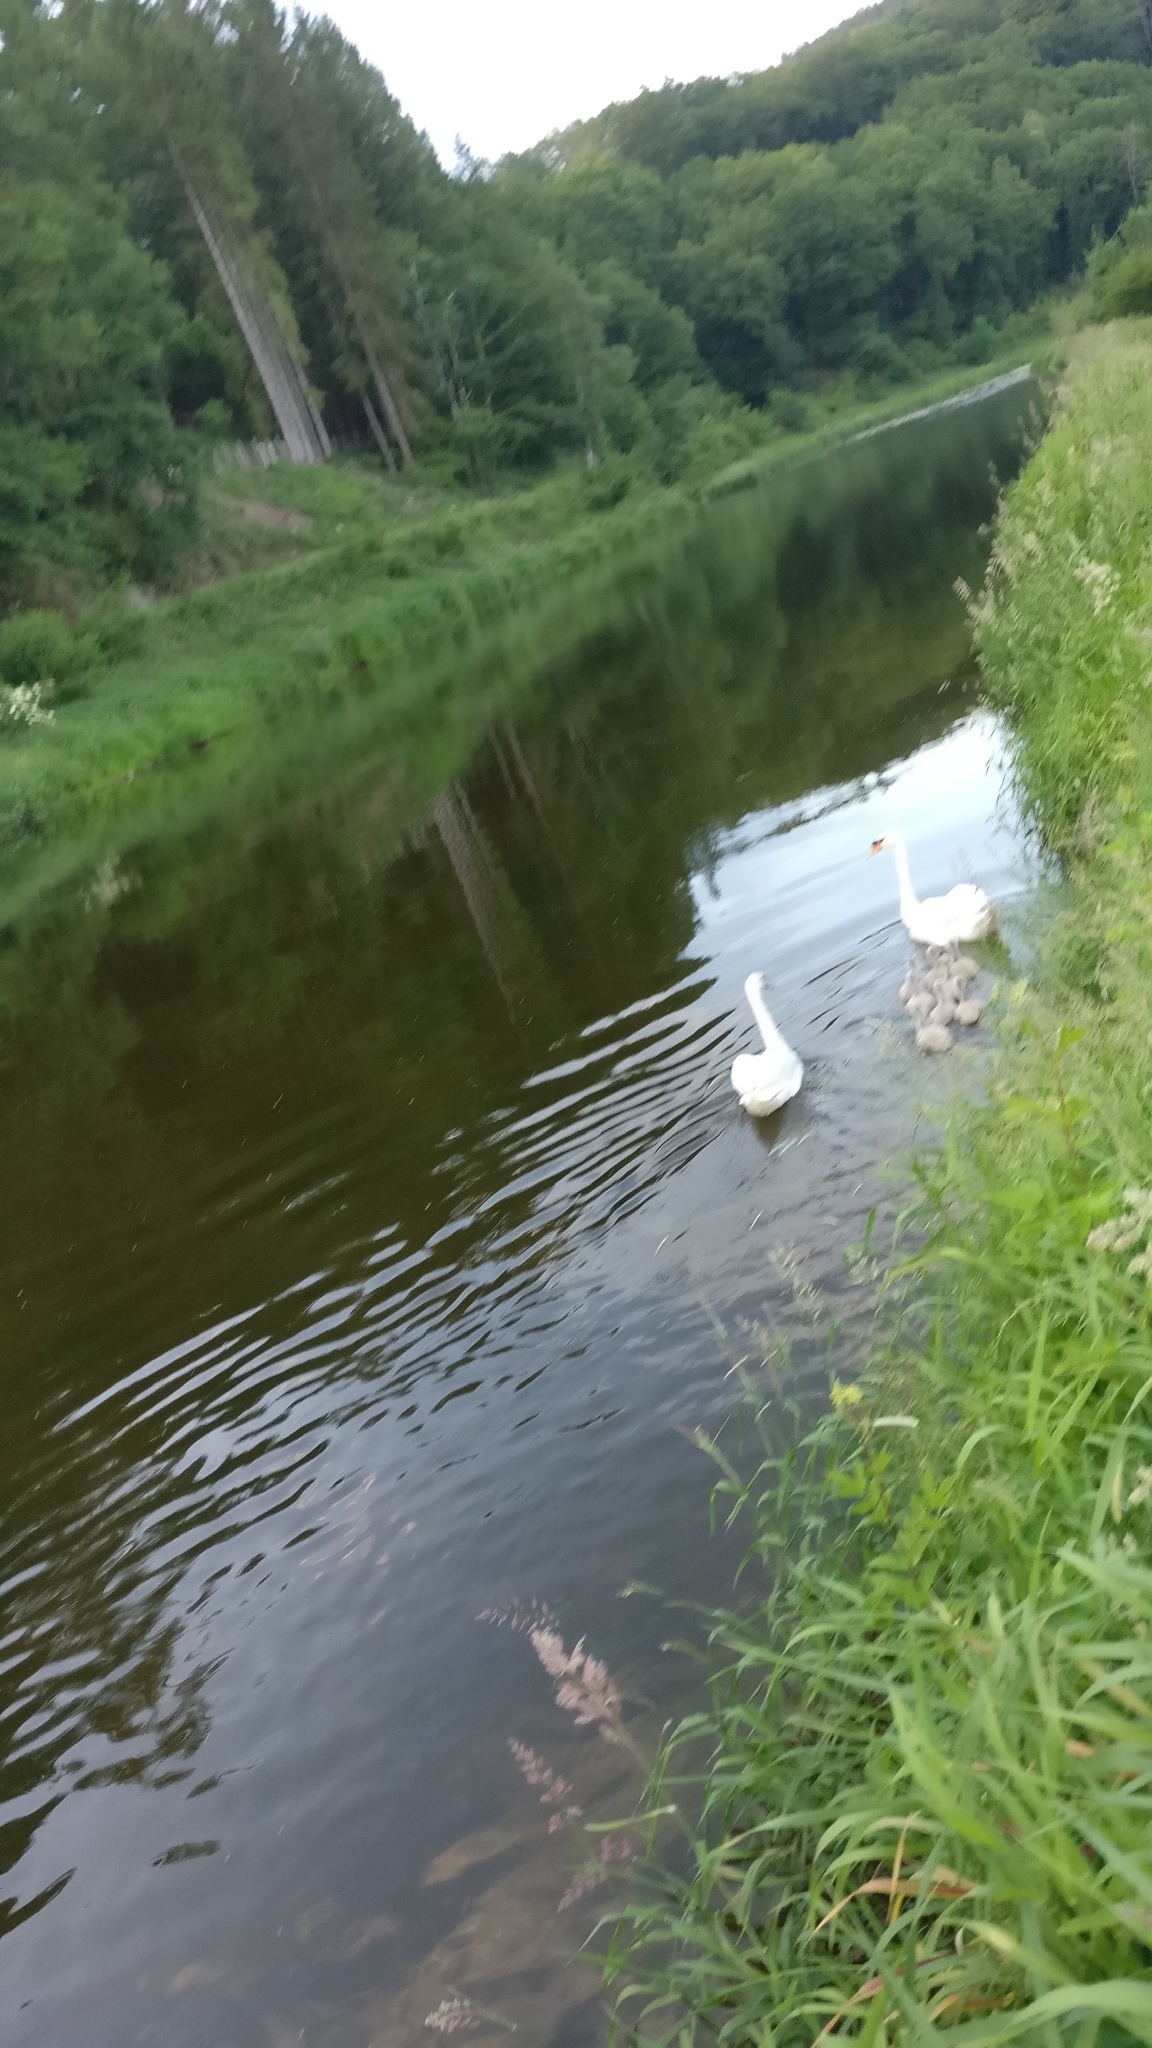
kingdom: Animalia
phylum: Chordata
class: Aves
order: Anseriformes
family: Anatidae
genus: Cygnus
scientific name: Cygnus olor
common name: Mute swan
